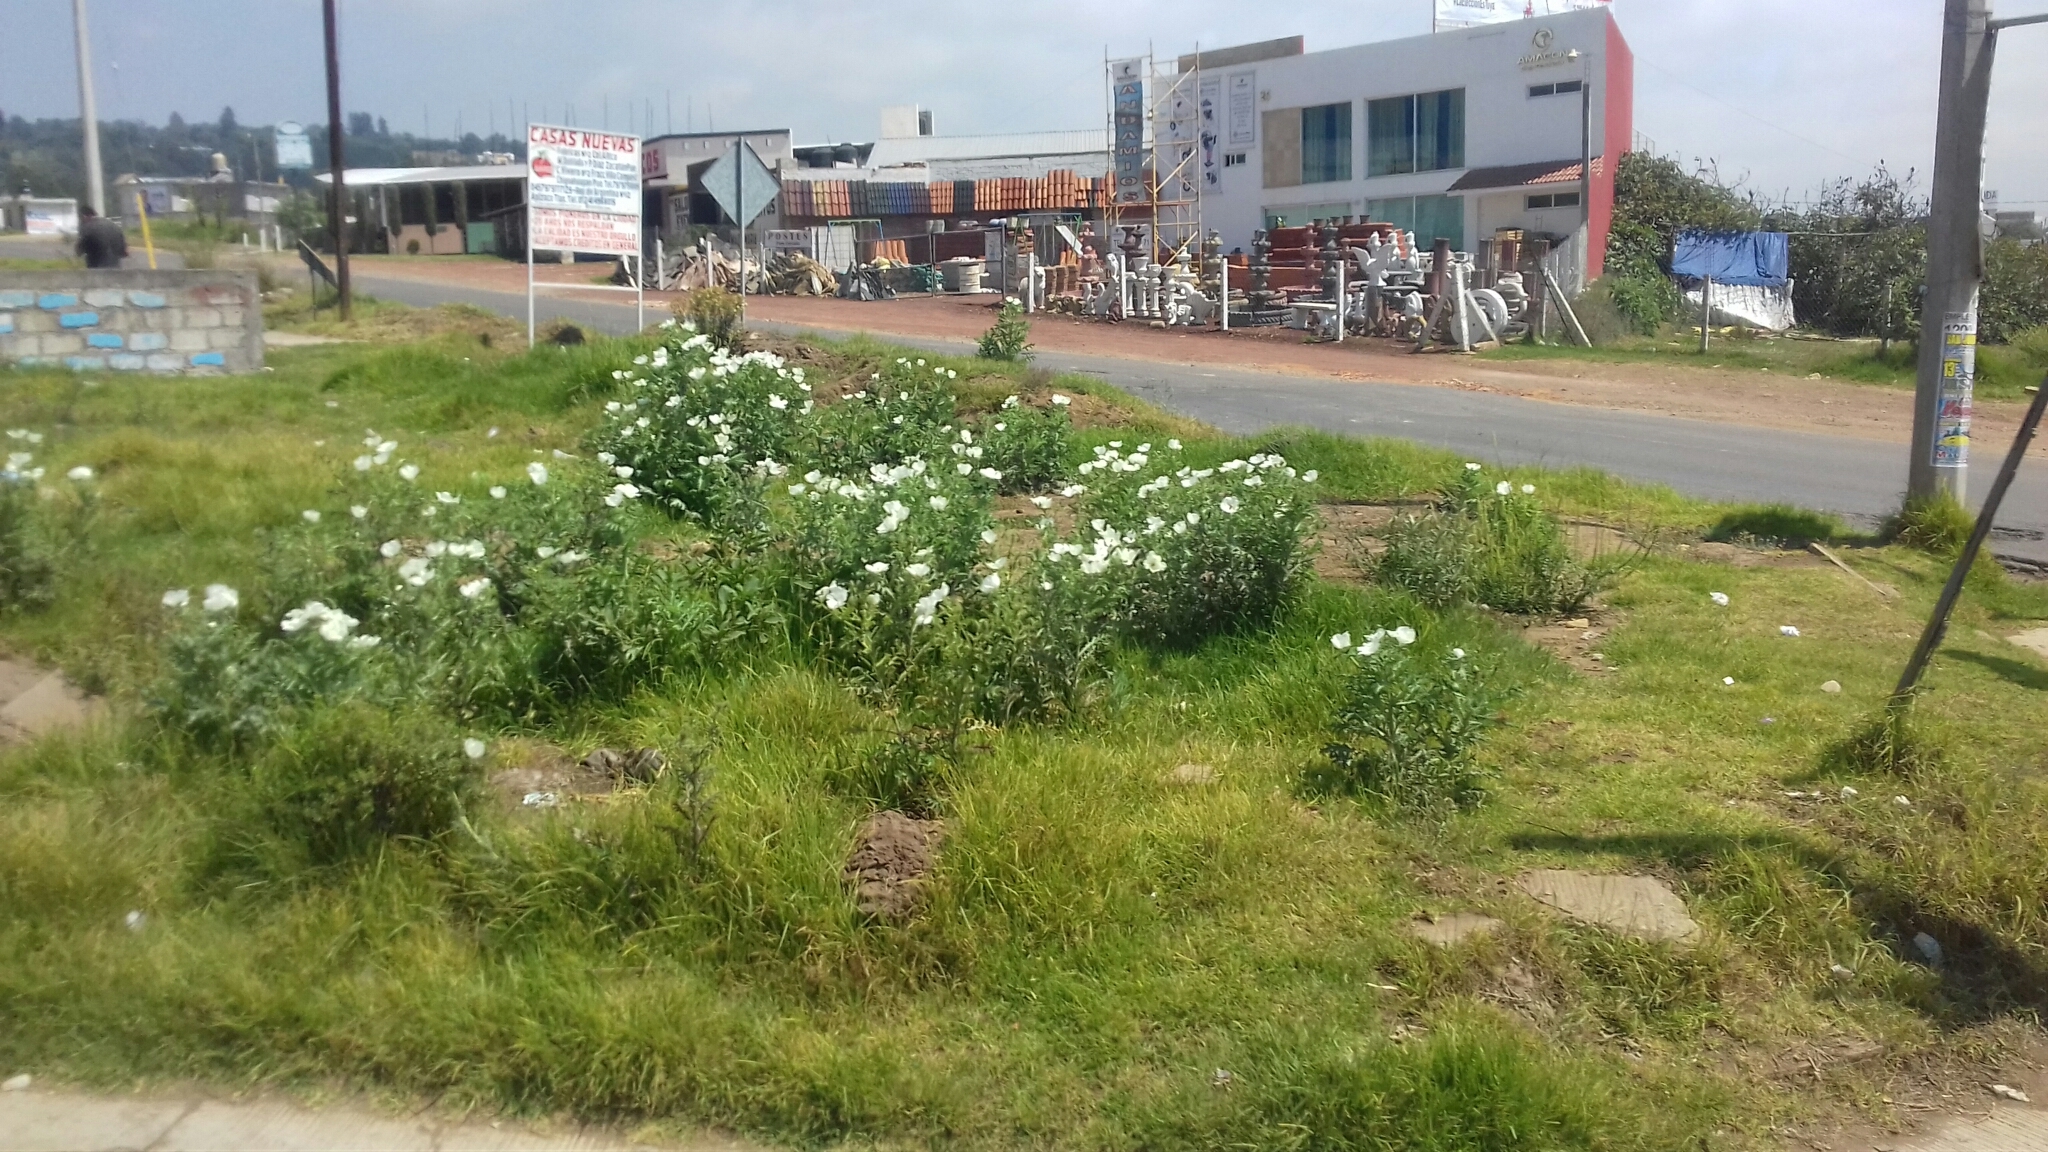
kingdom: Plantae
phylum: Tracheophyta
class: Magnoliopsida
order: Ranunculales
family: Papaveraceae
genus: Argemone
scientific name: Argemone platyceras
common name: Crested-poppy
